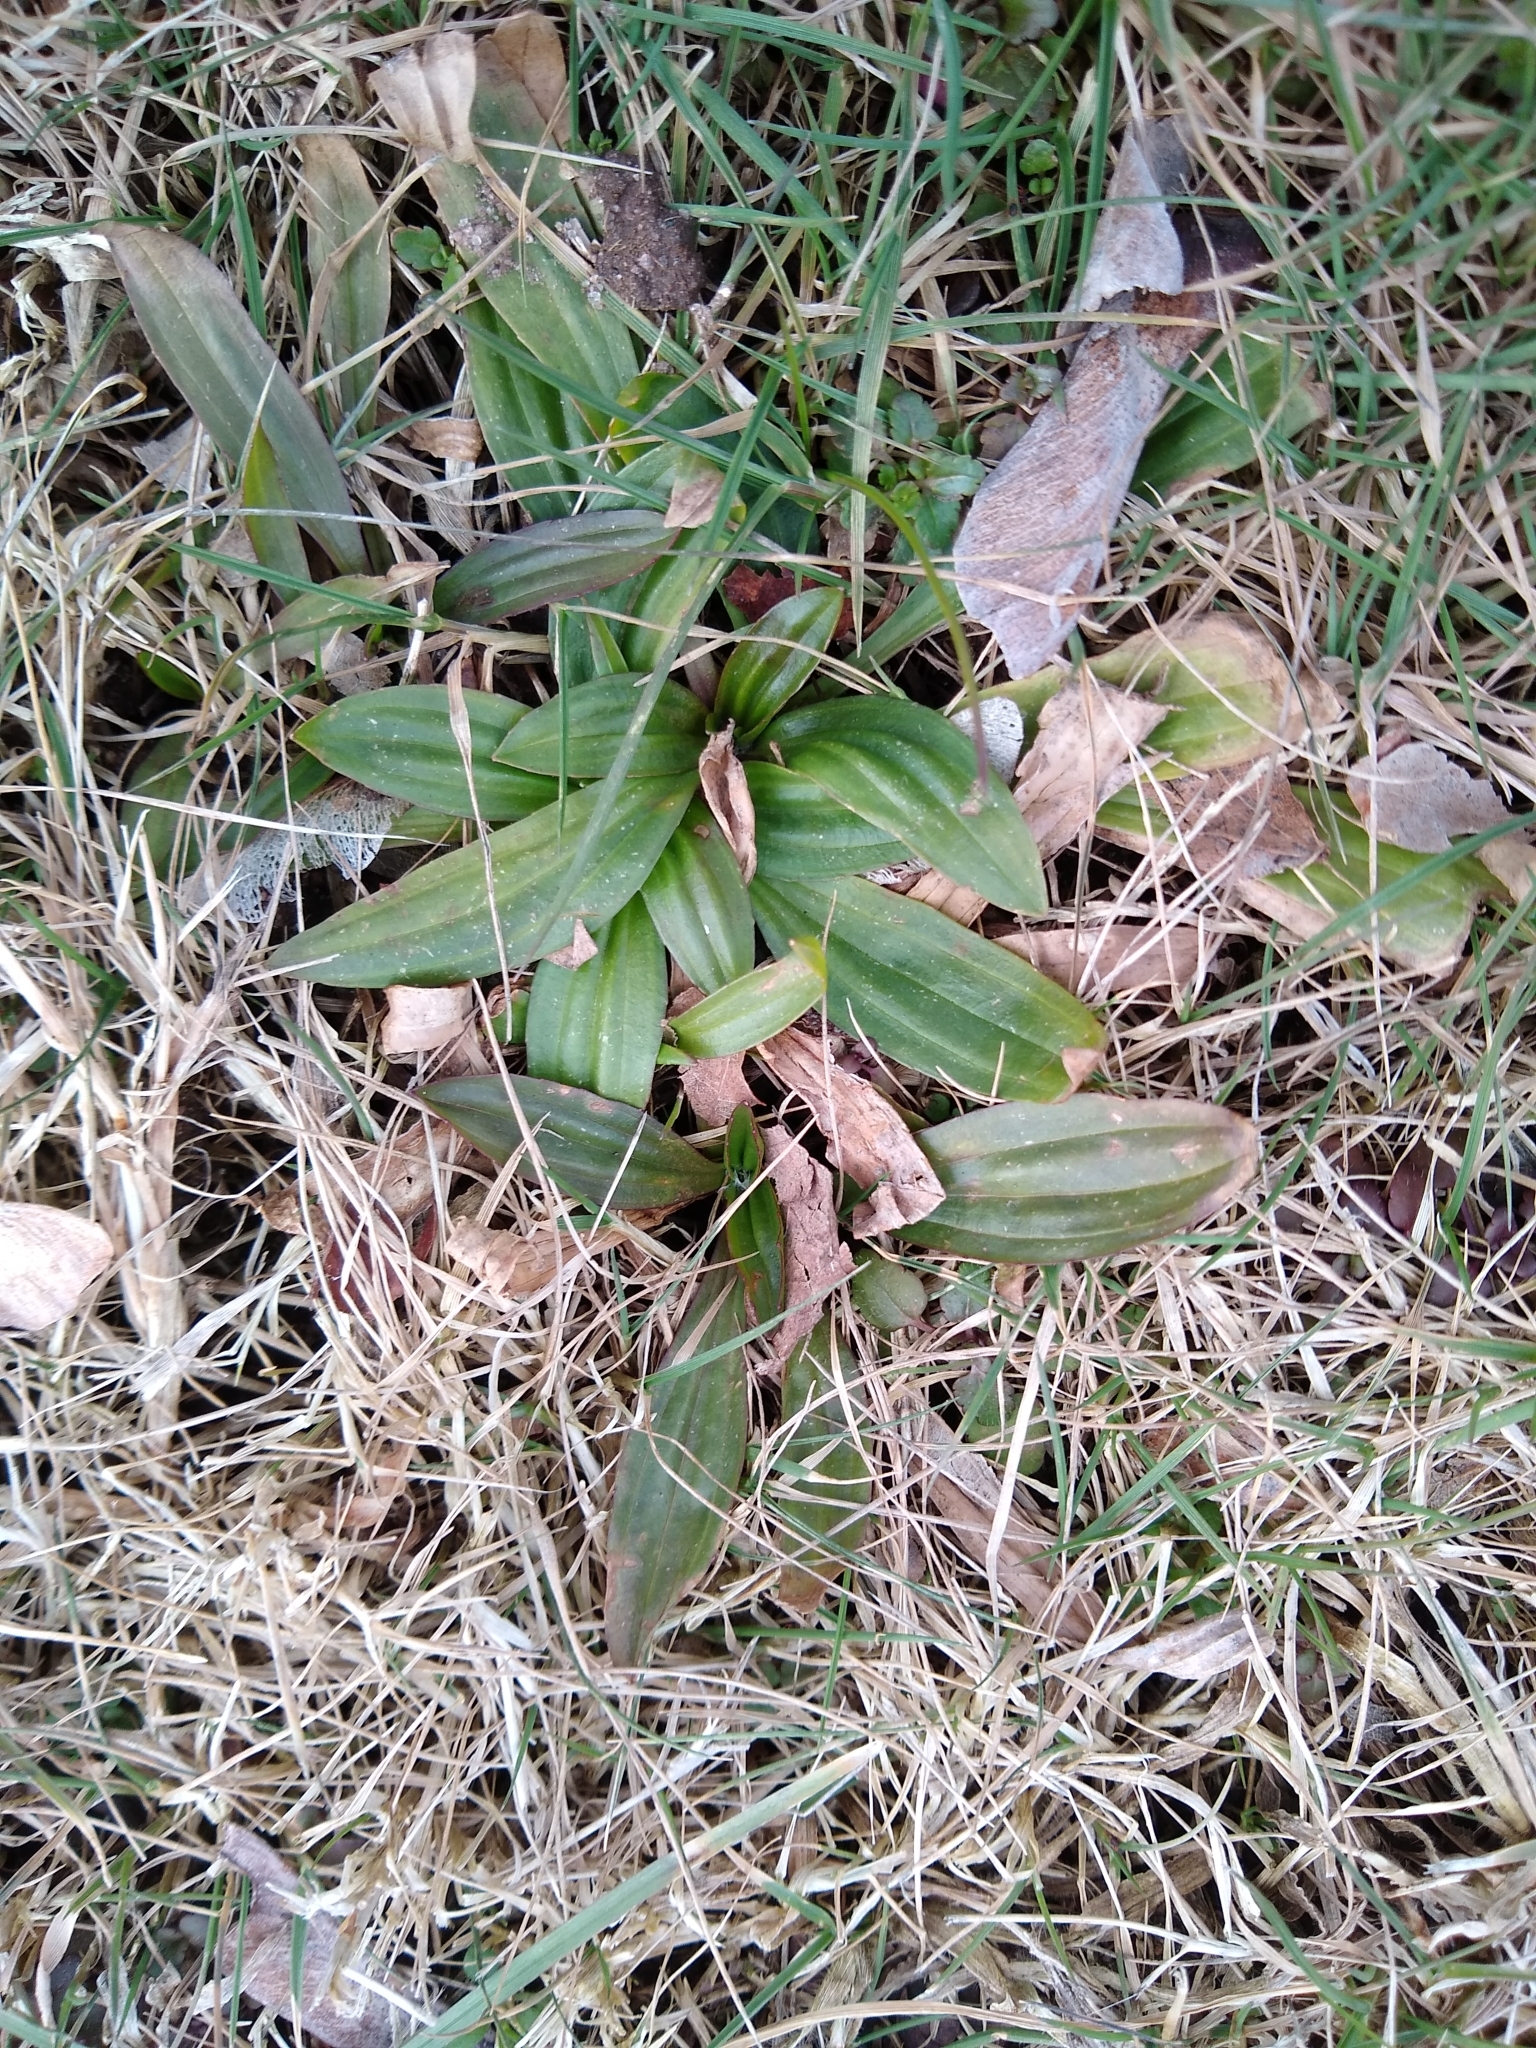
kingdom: Plantae
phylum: Tracheophyta
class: Magnoliopsida
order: Lamiales
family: Plantaginaceae
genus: Plantago
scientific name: Plantago lanceolata
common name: Ribwort plantain
